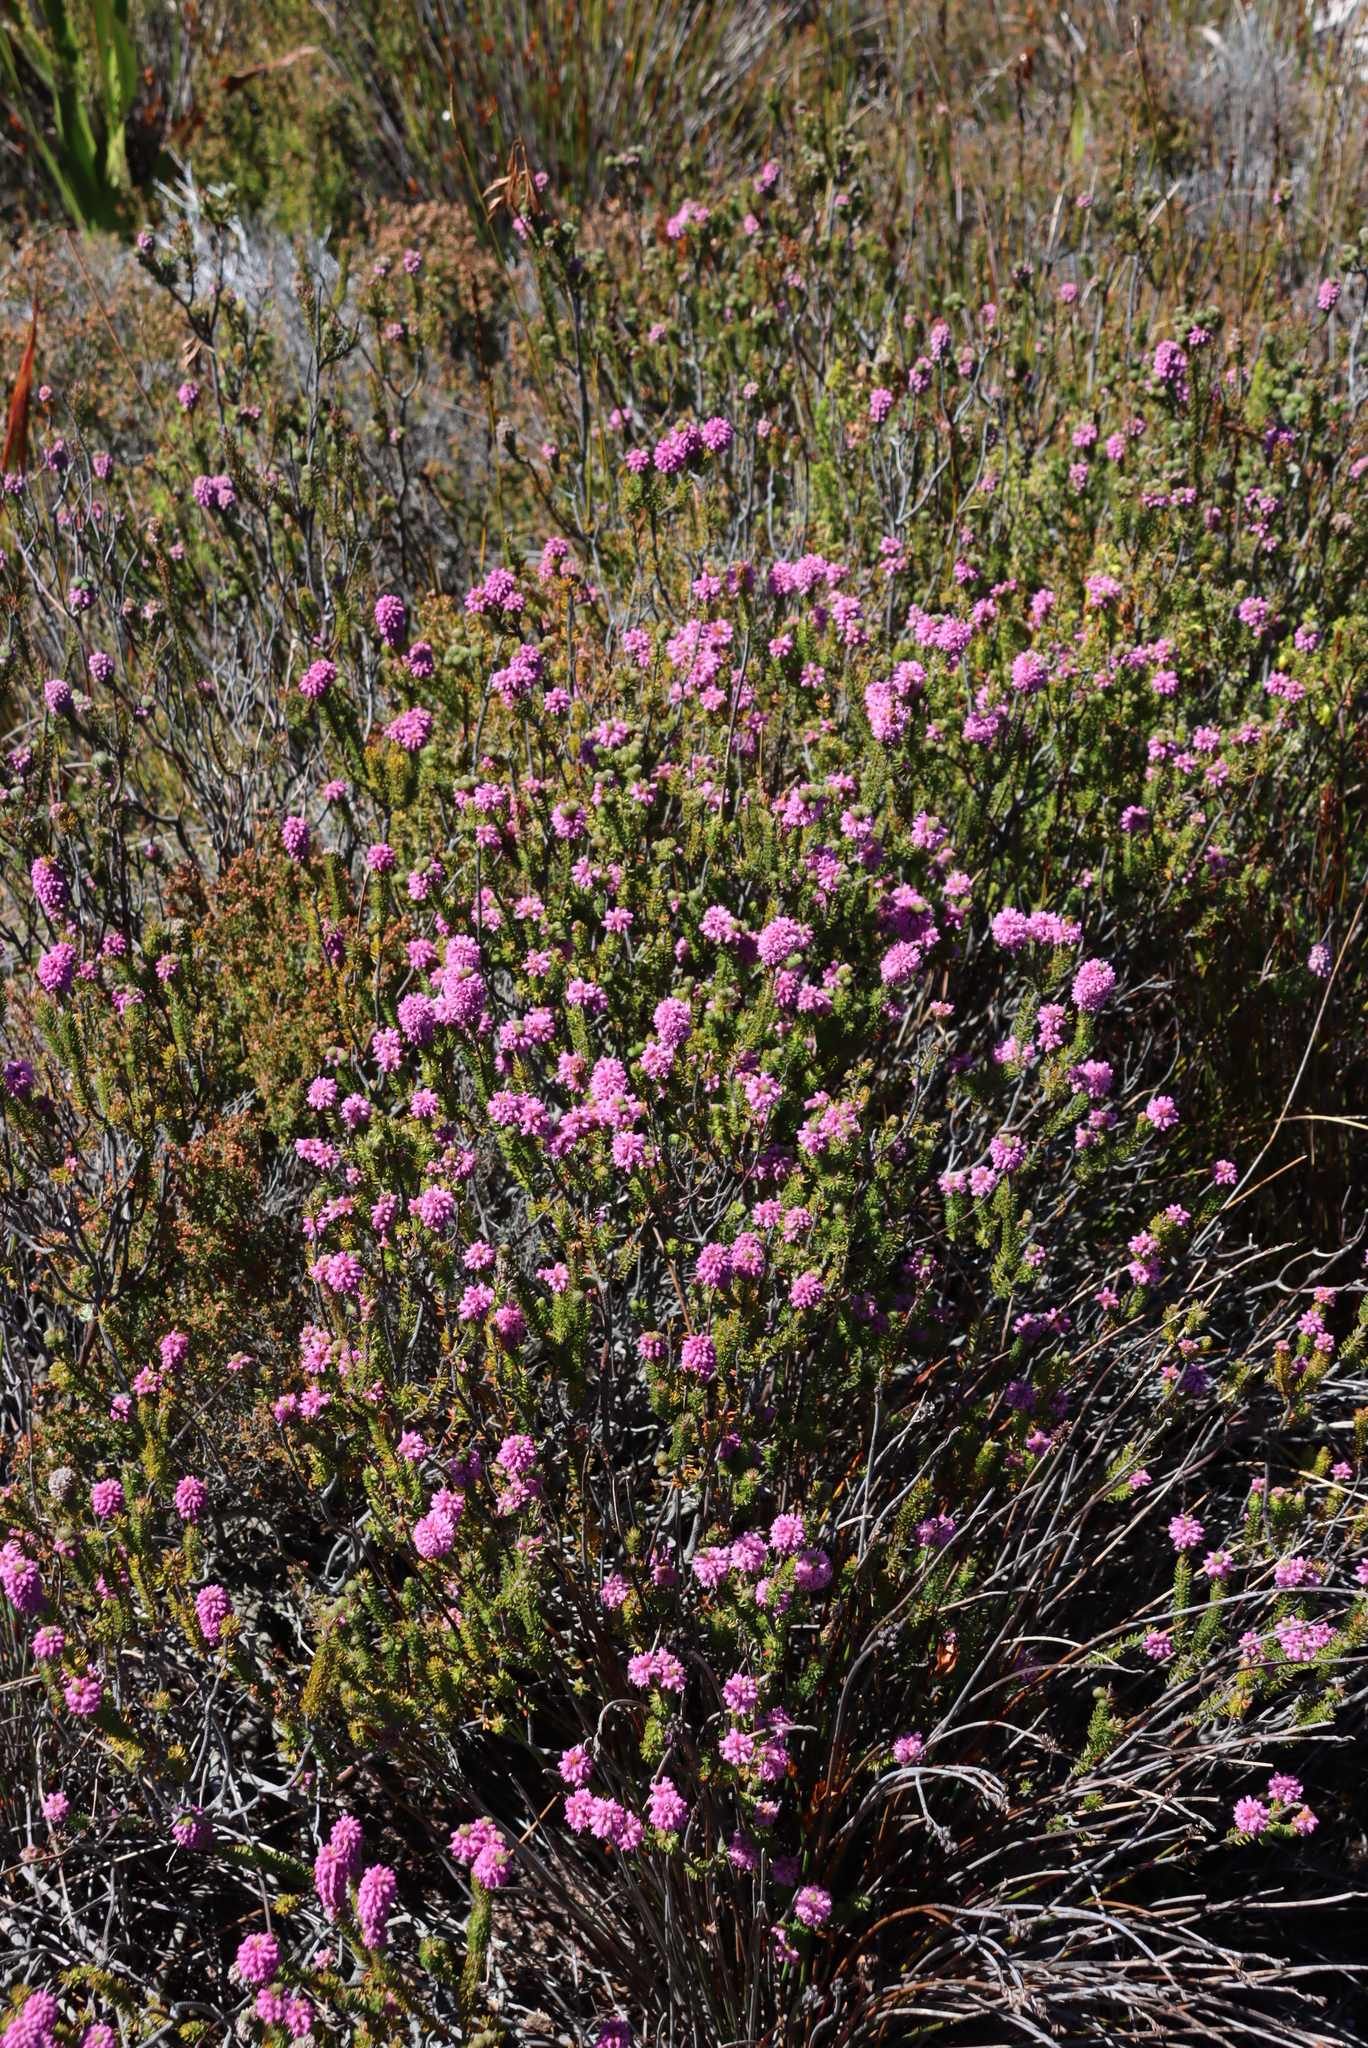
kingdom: Plantae
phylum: Tracheophyta
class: Magnoliopsida
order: Ericales
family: Ericaceae
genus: Erica
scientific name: Erica empetrina
